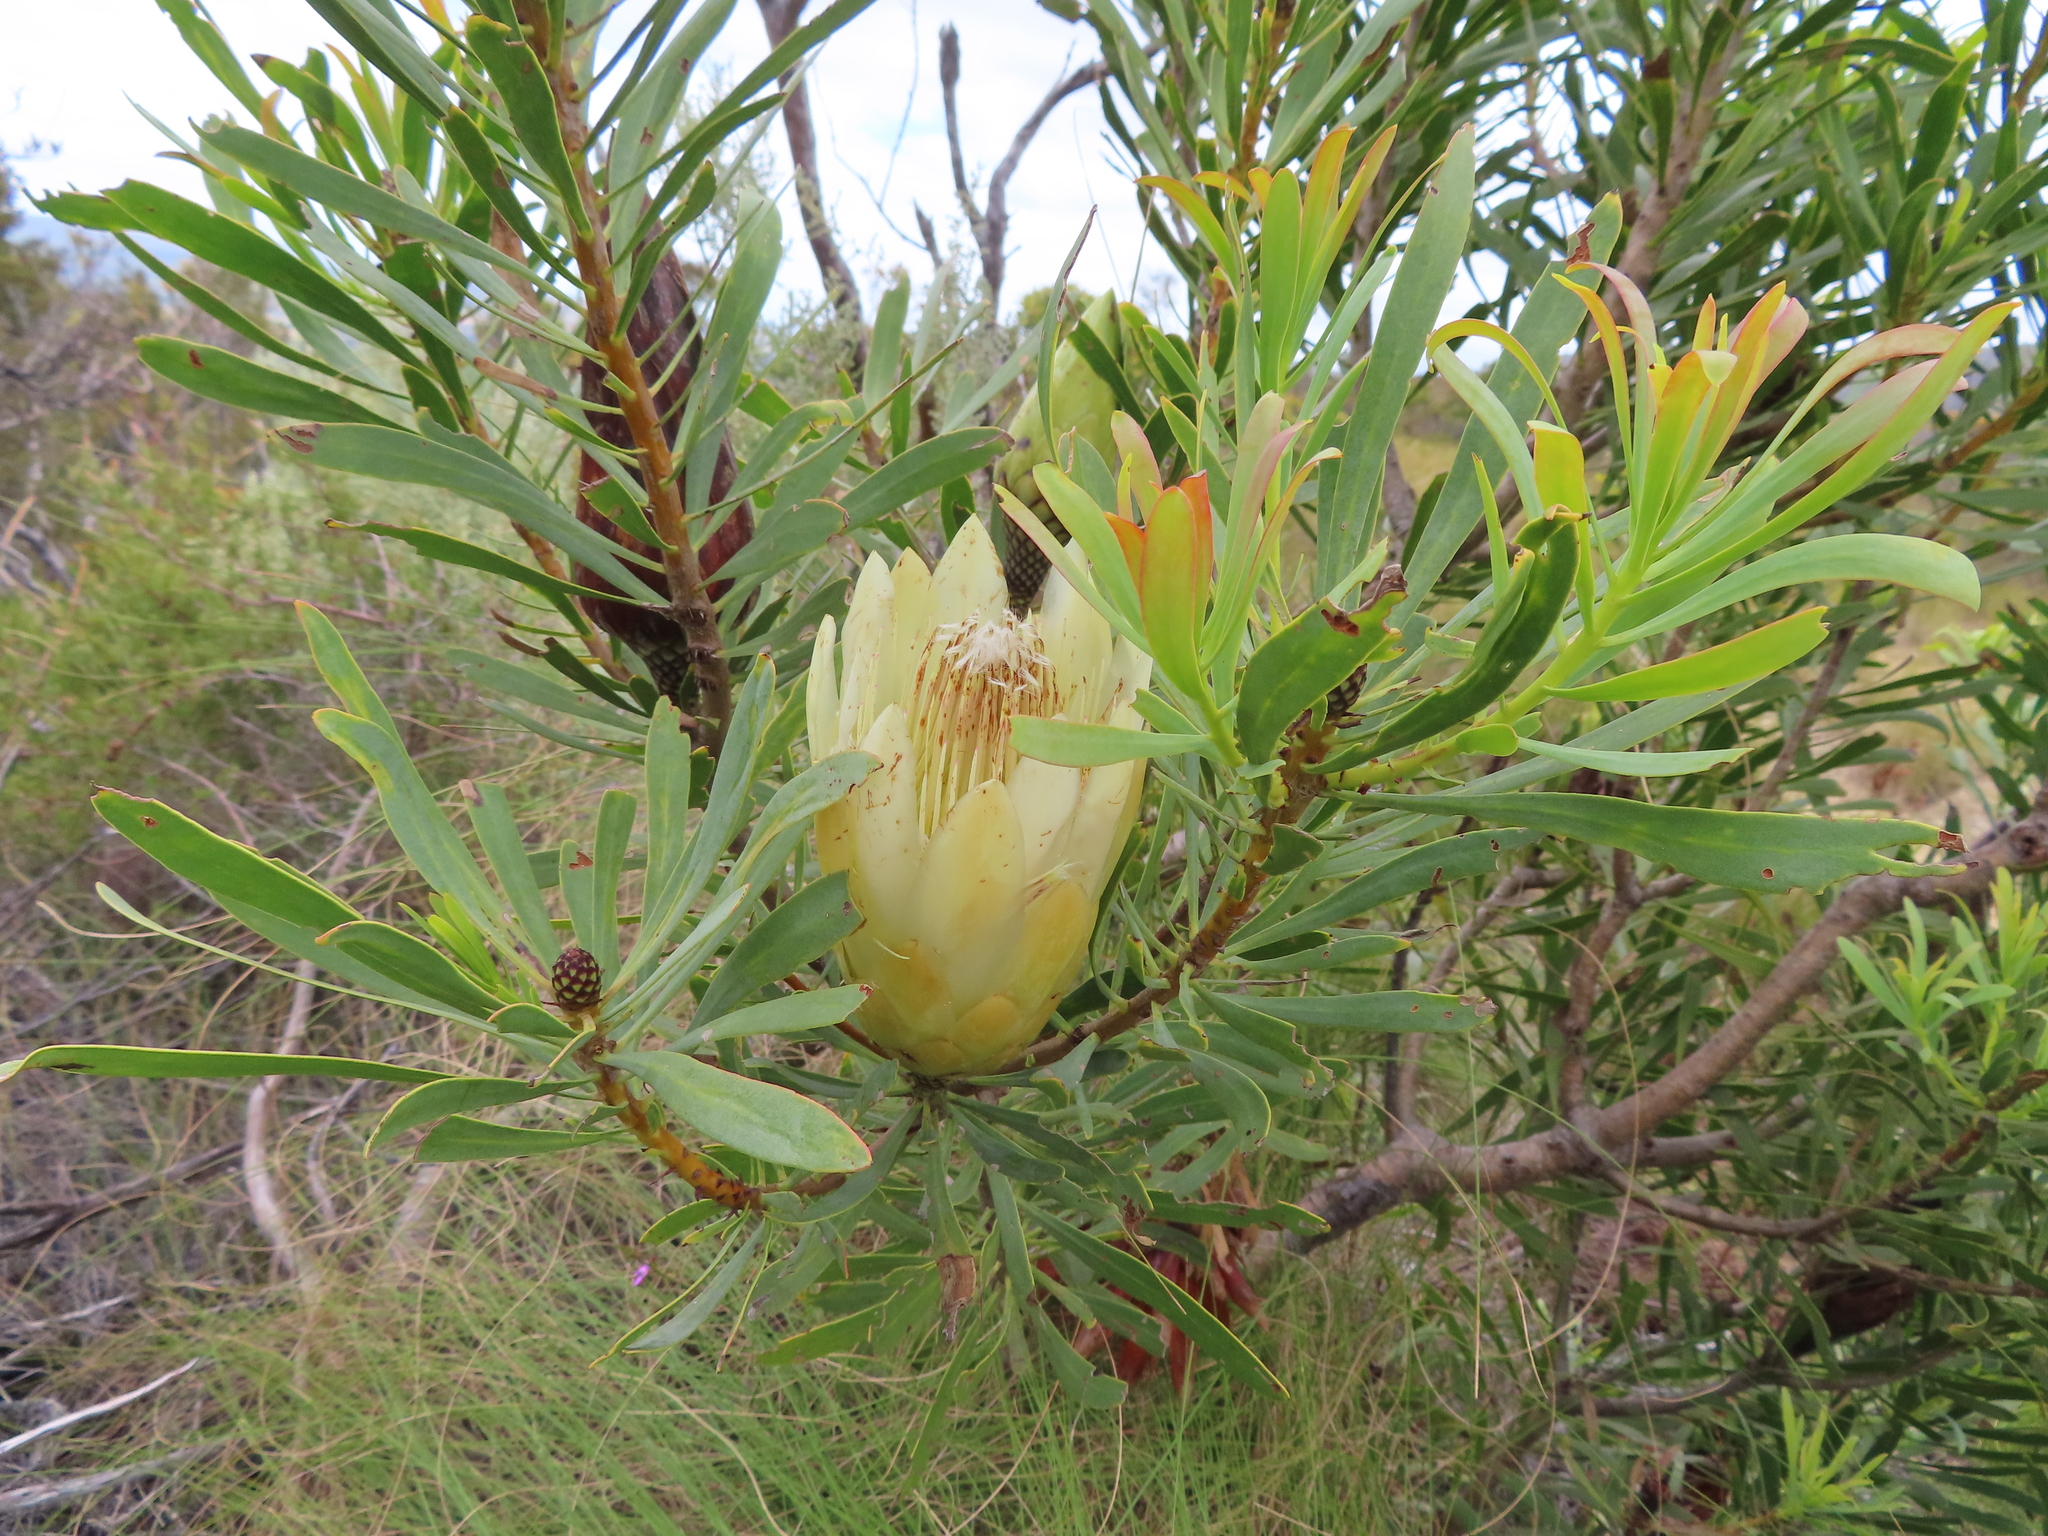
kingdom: Plantae
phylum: Tracheophyta
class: Magnoliopsida
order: Proteales
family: Proteaceae
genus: Protea
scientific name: Protea repens
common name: Sugarbush
